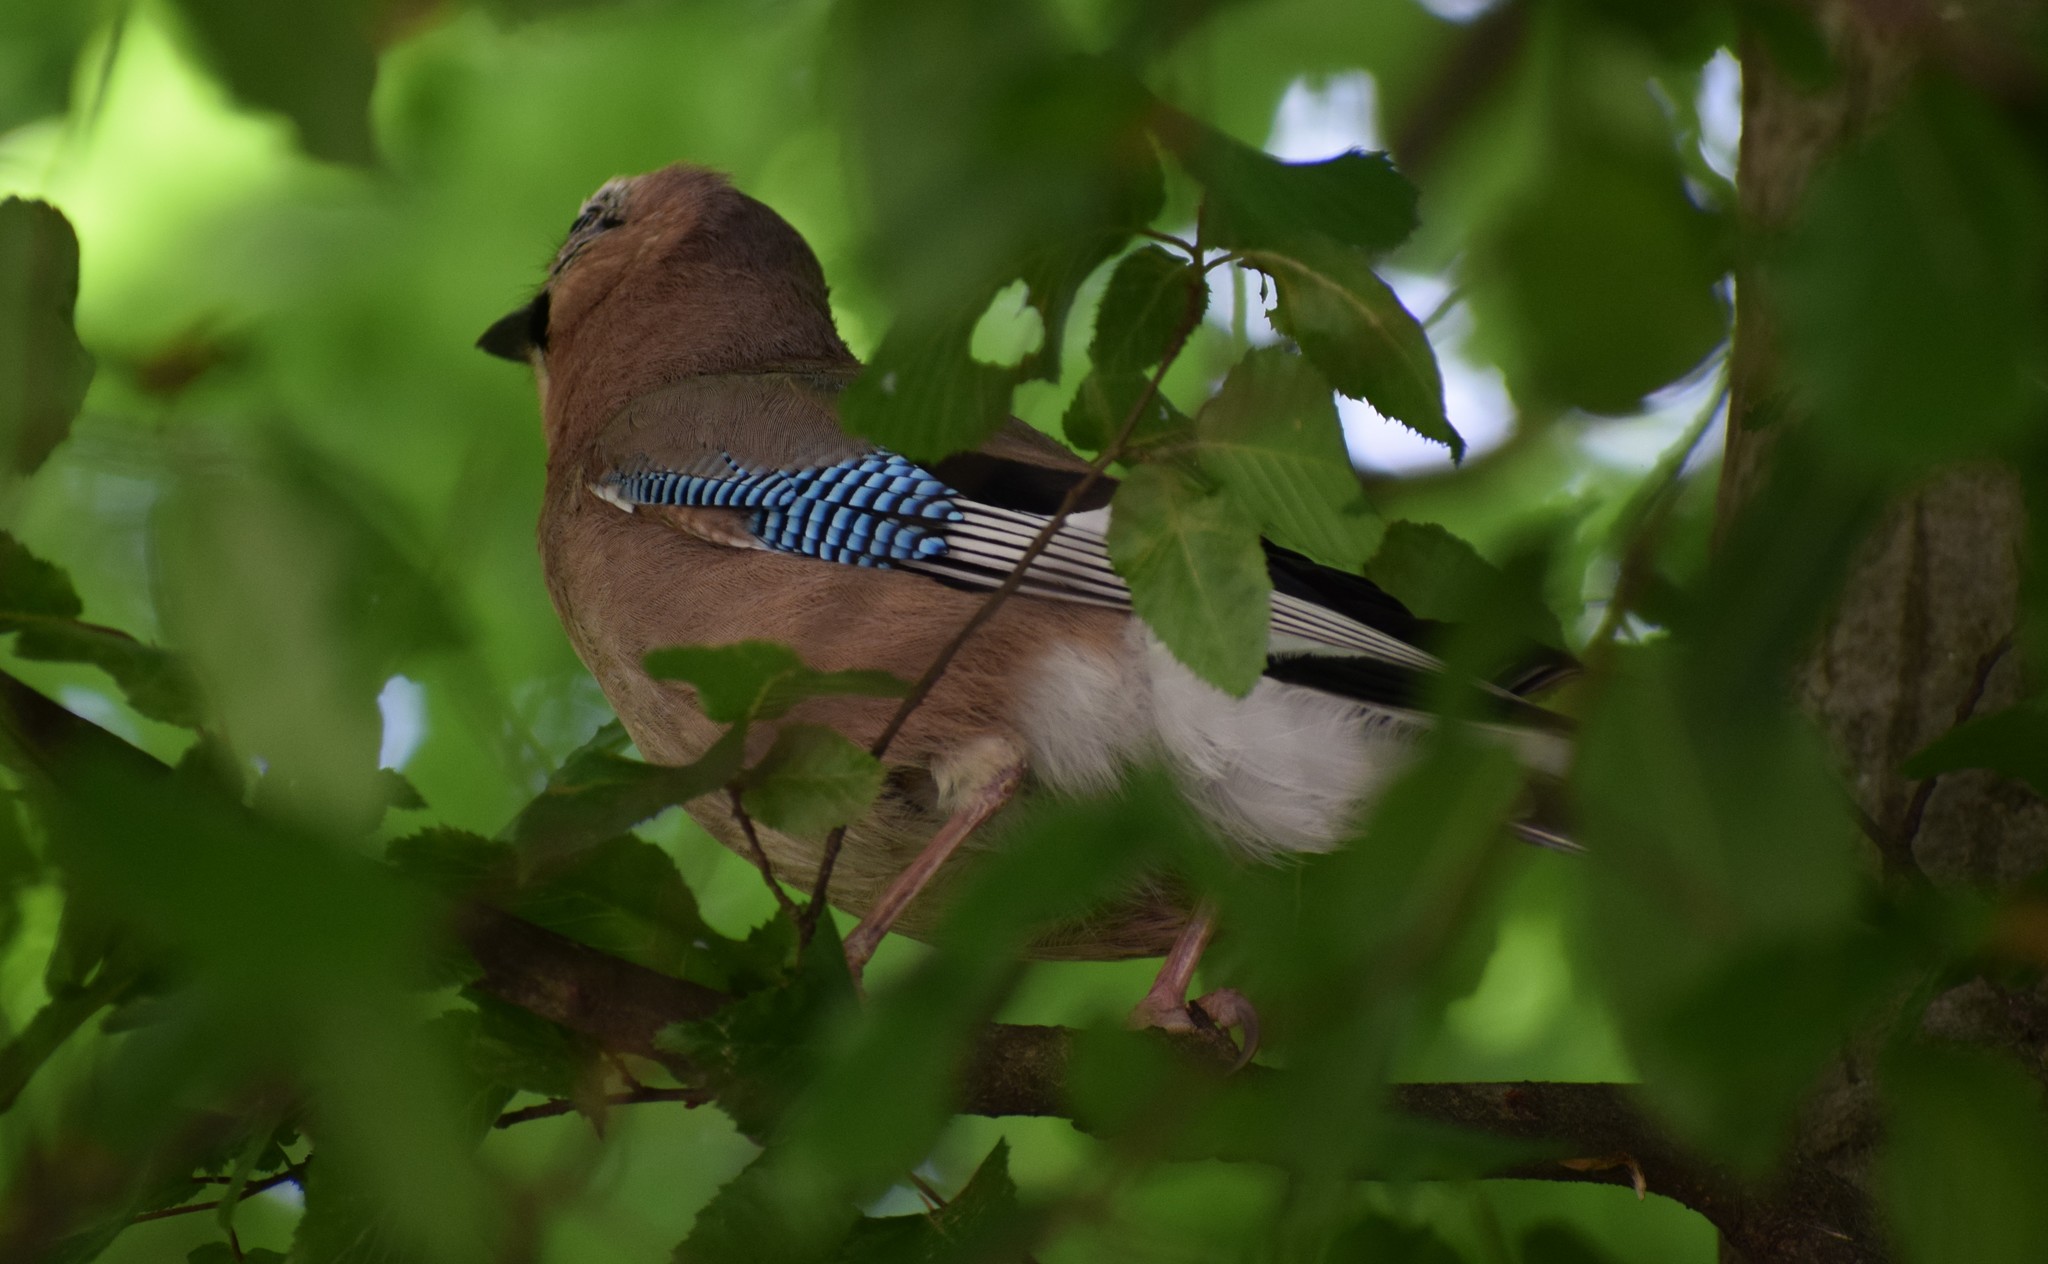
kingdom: Animalia
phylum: Chordata
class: Aves
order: Passeriformes
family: Corvidae
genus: Garrulus
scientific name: Garrulus glandarius
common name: Eurasian jay
